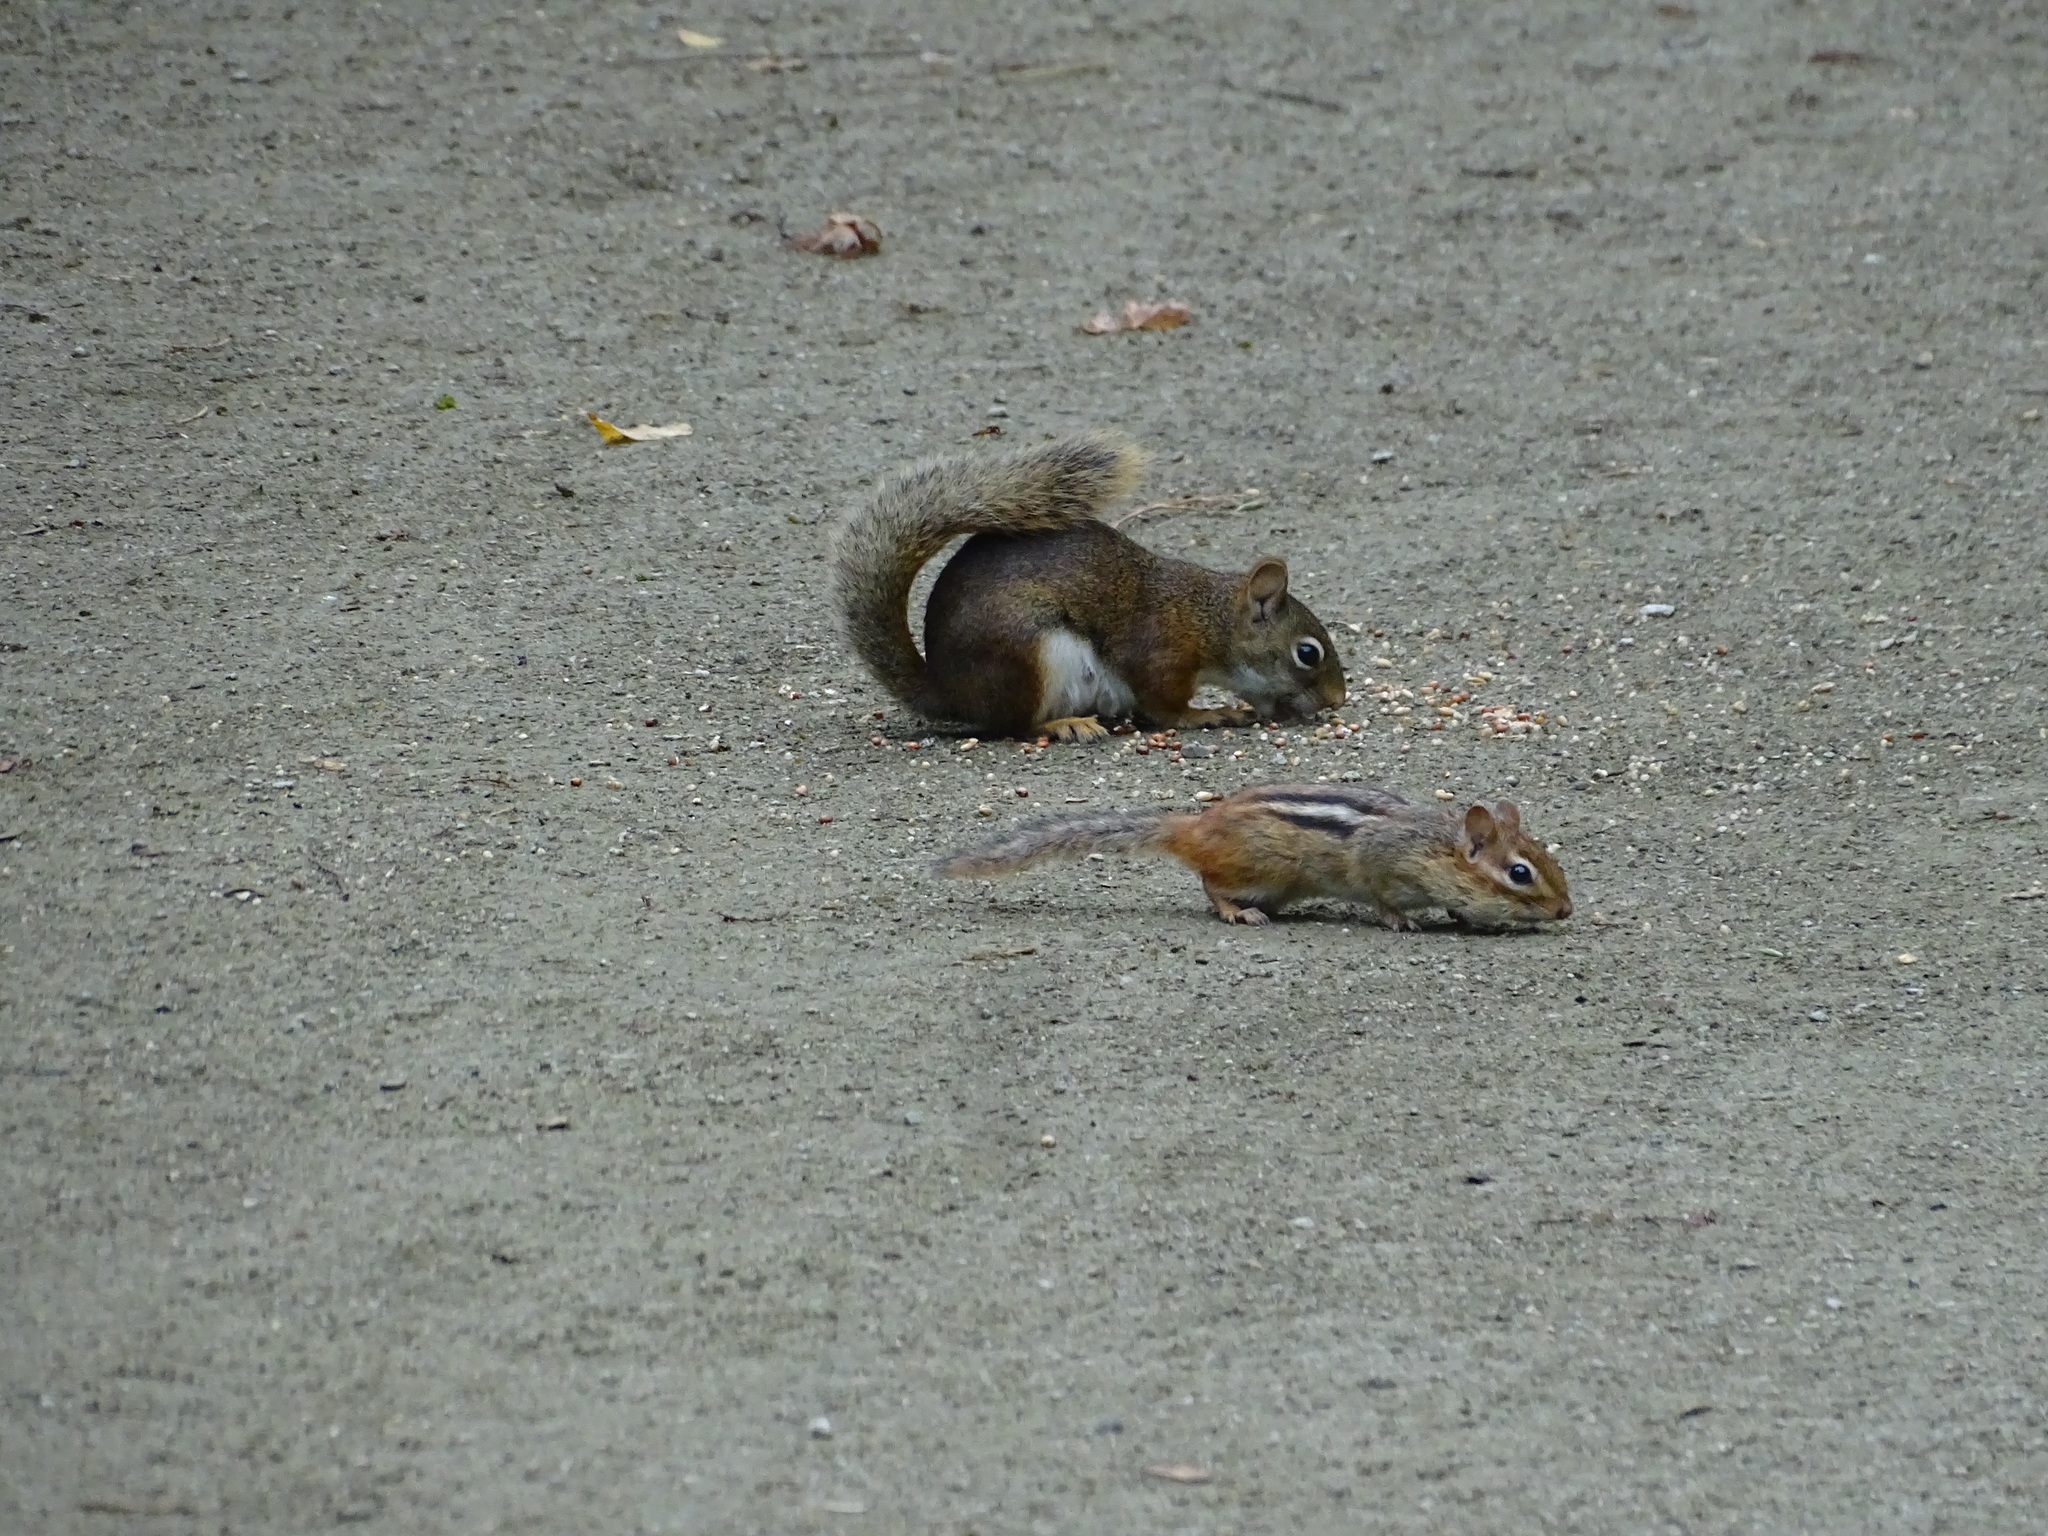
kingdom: Animalia
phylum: Chordata
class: Mammalia
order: Rodentia
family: Sciuridae
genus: Tamias
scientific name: Tamias striatus
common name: Eastern chipmunk
